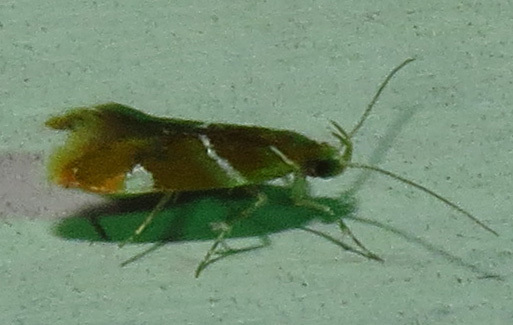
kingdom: Animalia
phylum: Arthropoda
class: Insecta
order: Lepidoptera
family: Oecophoridae
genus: Promalactis
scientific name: Promalactis suzukiella
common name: Moth
